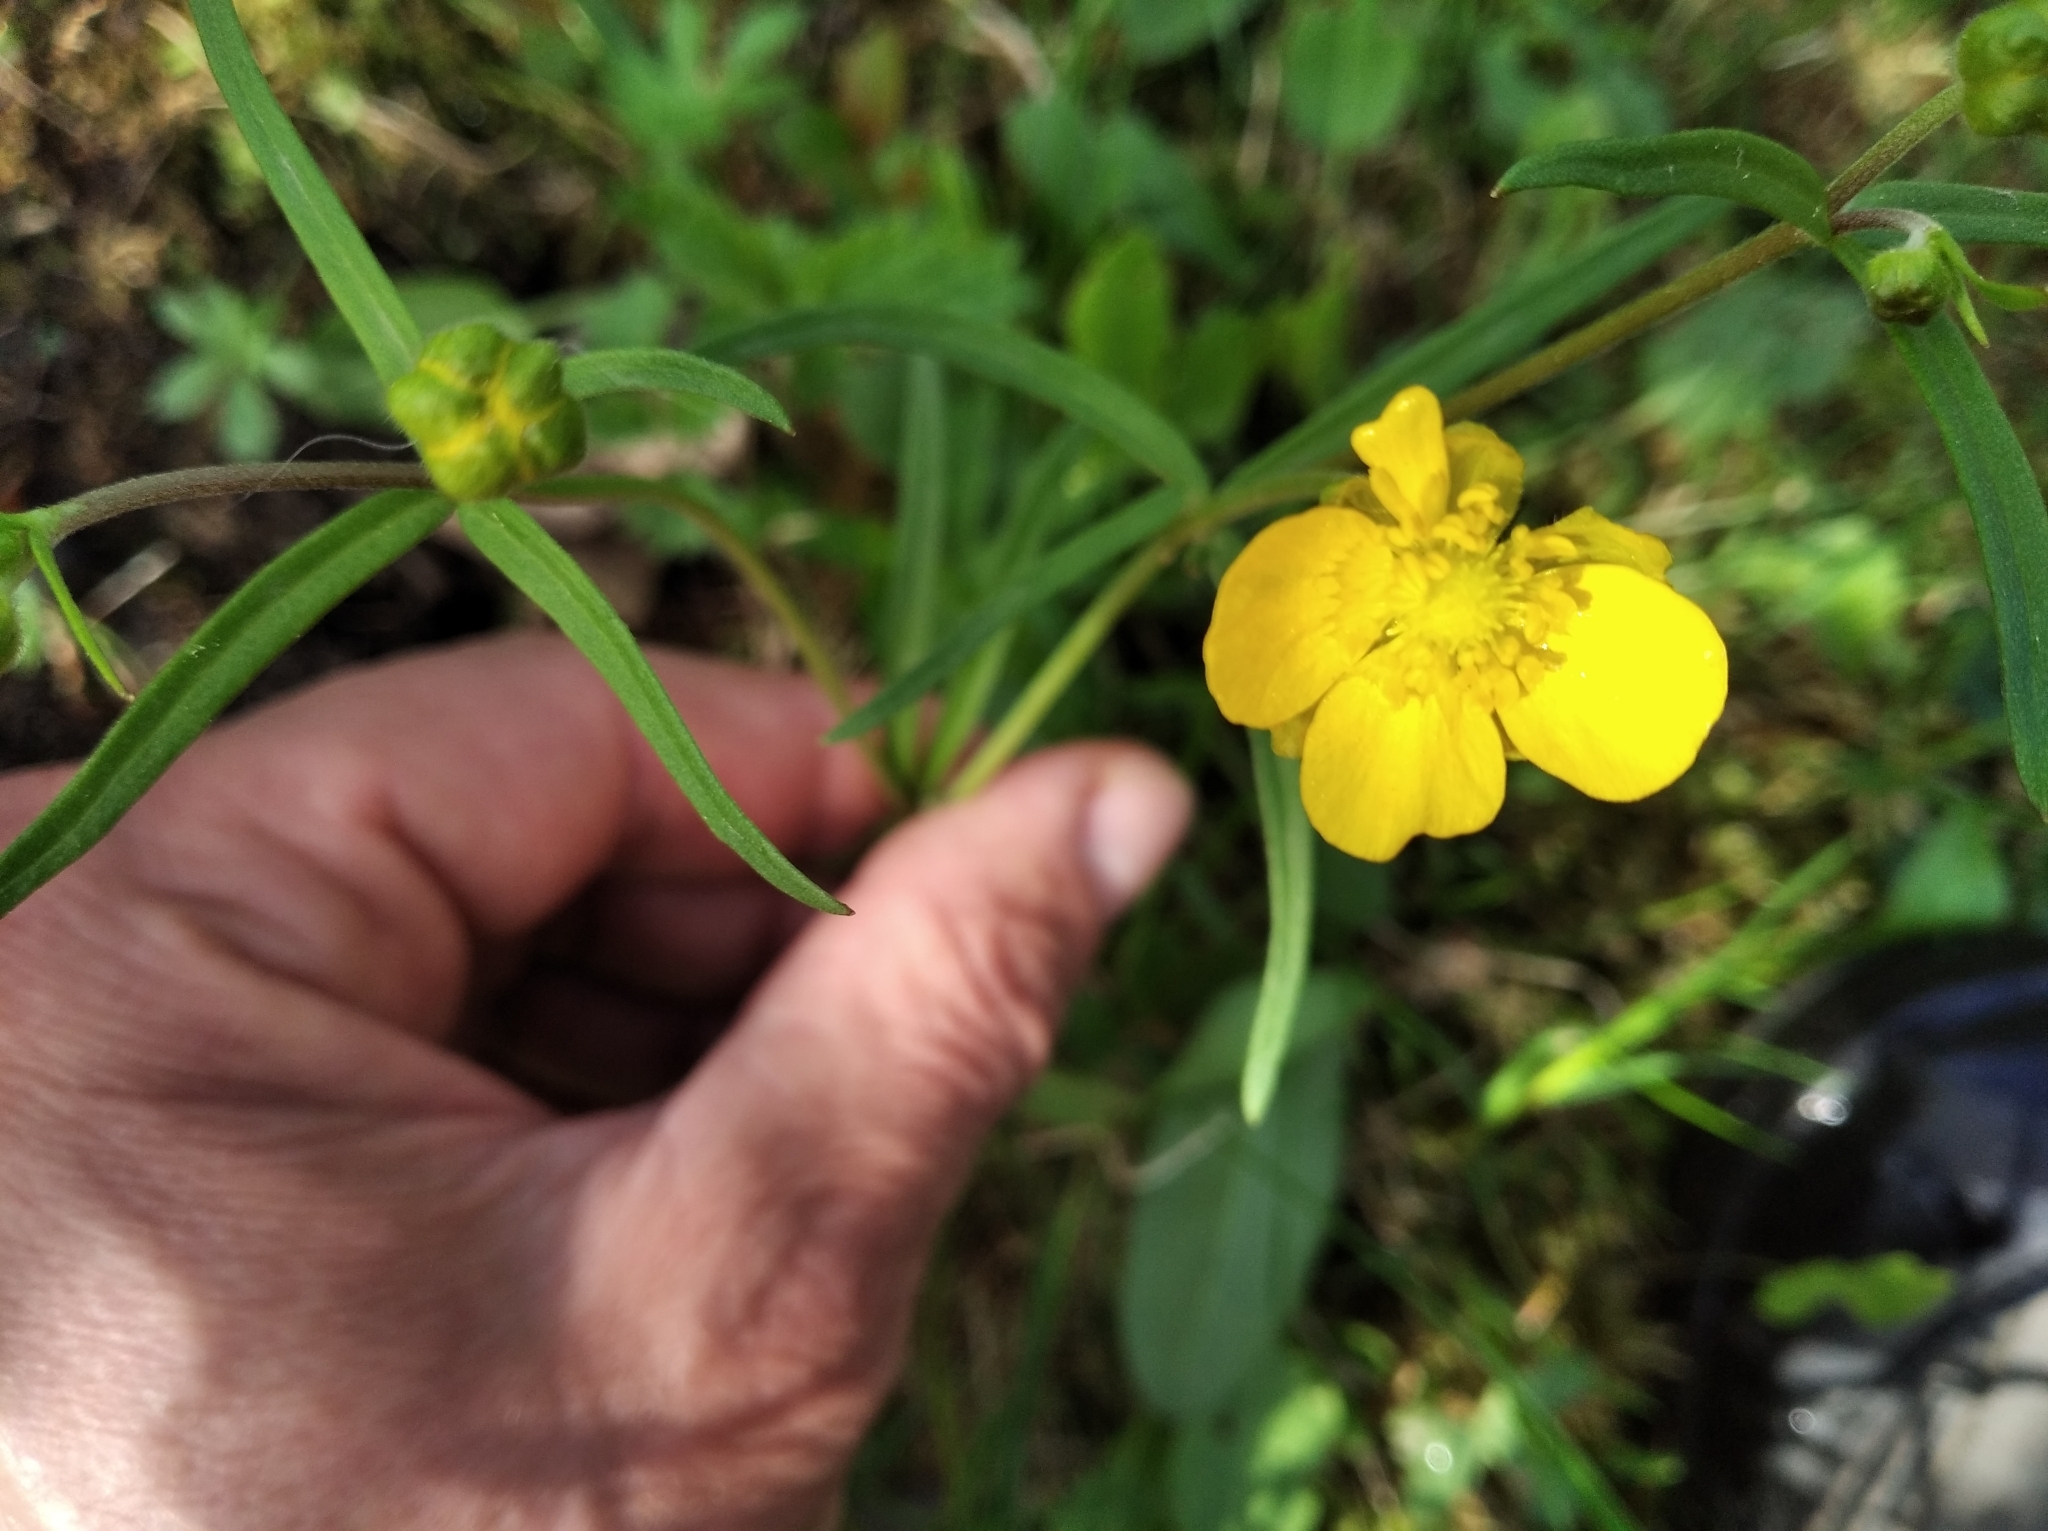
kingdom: Plantae
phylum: Tracheophyta
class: Magnoliopsida
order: Ranunculales
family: Ranunculaceae
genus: Ranunculus
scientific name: Ranunculus auricomus
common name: Goldilocks buttercup
